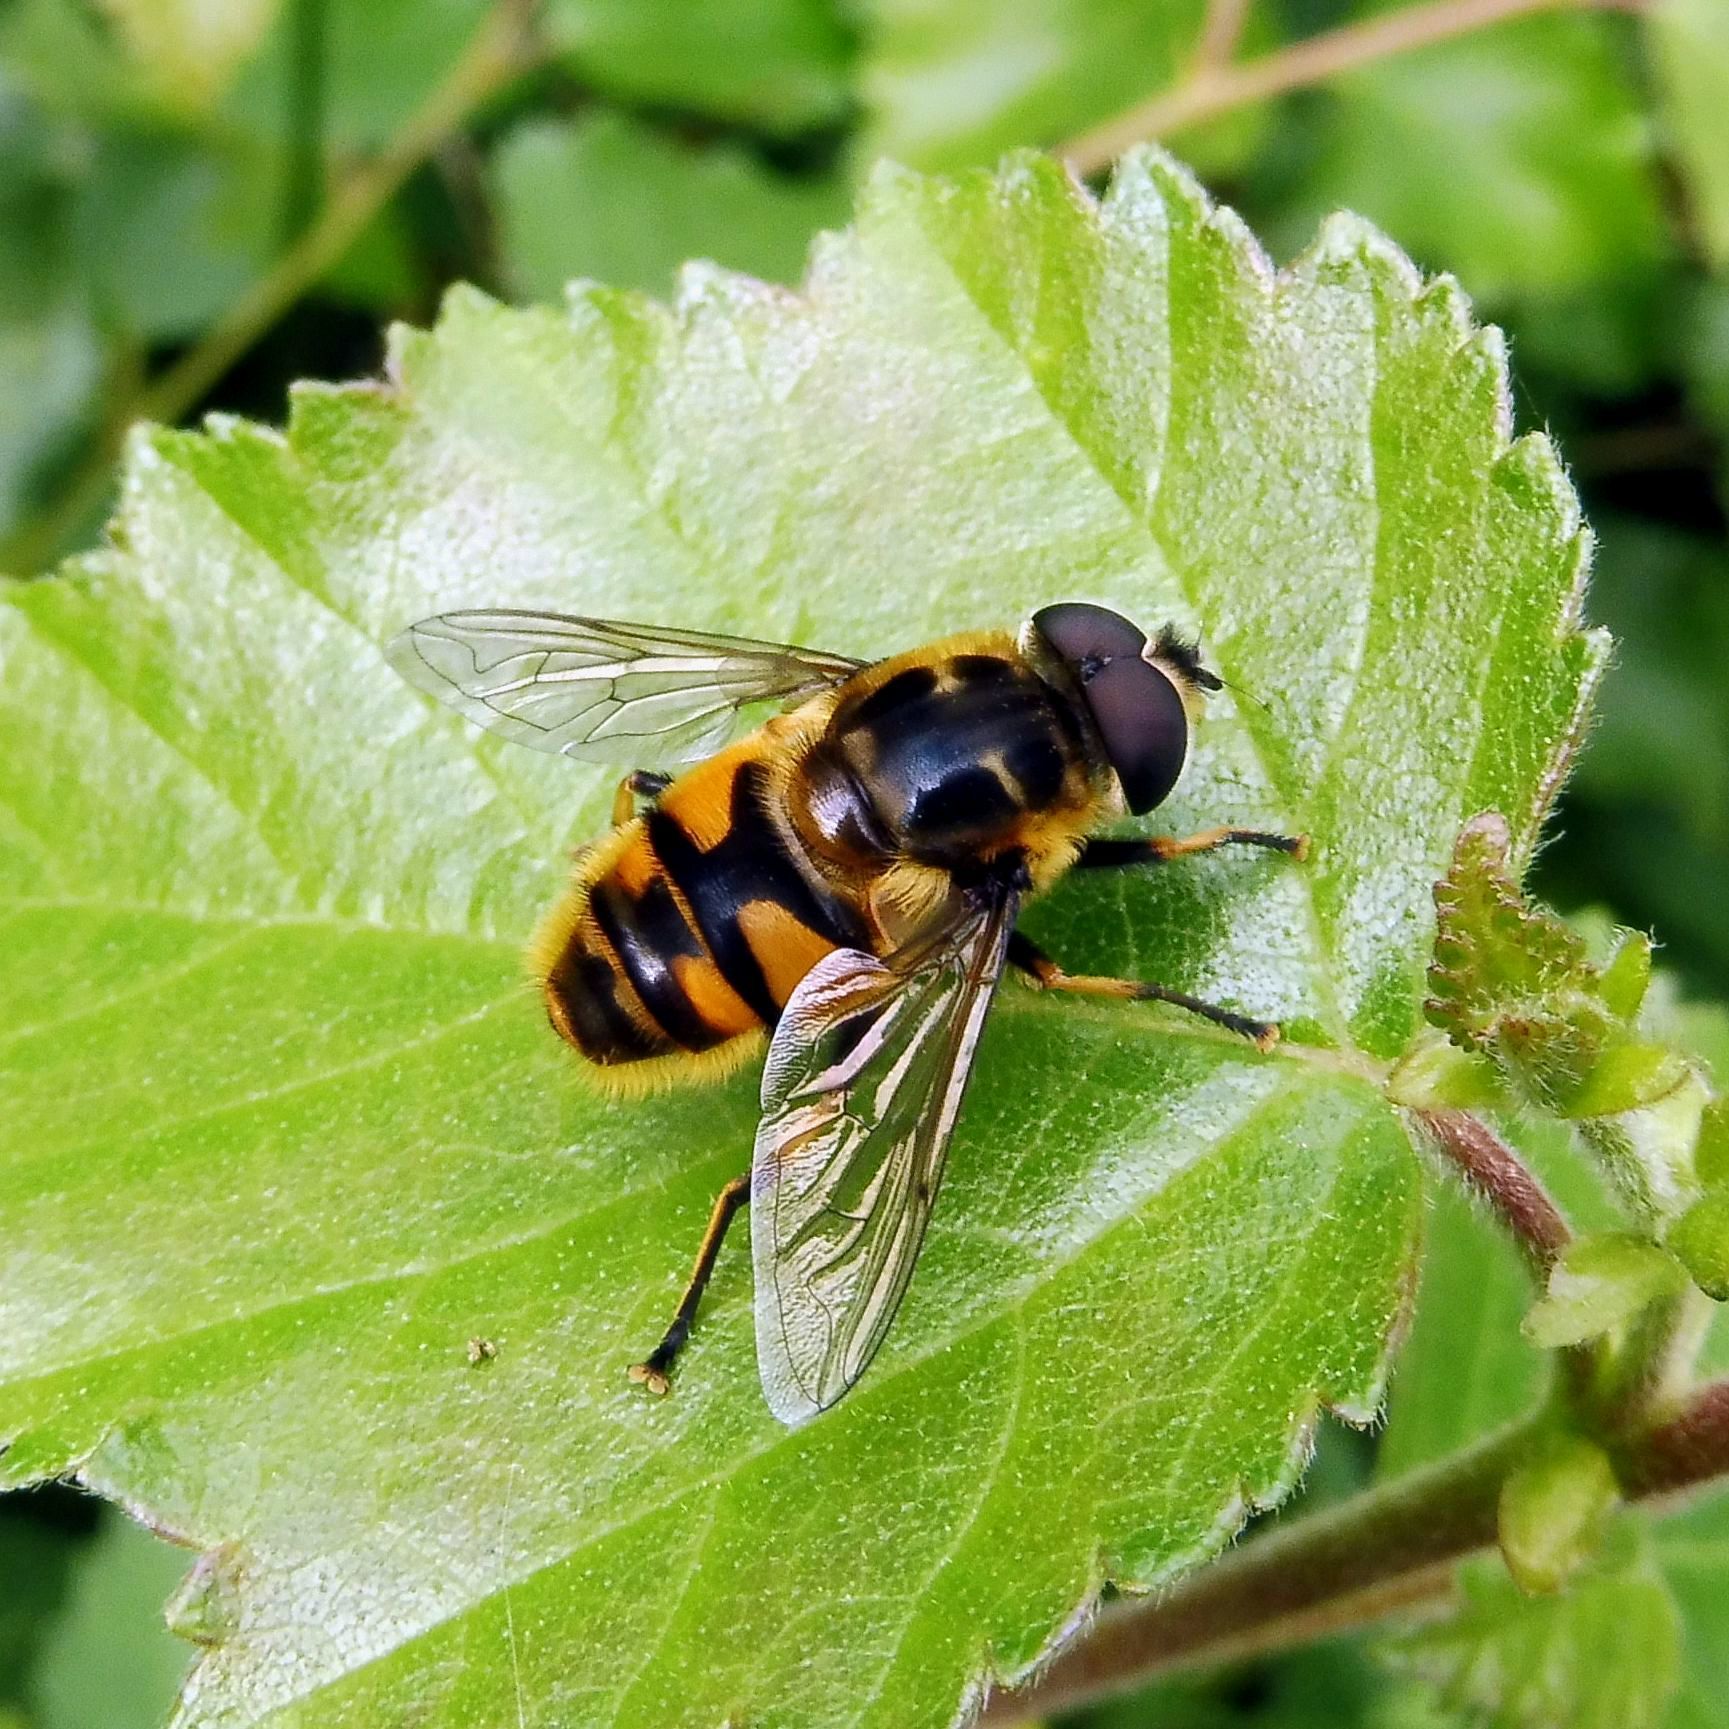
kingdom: Animalia
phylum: Arthropoda
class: Insecta
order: Diptera
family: Syrphidae
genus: Myathropa
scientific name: Myathropa florea
